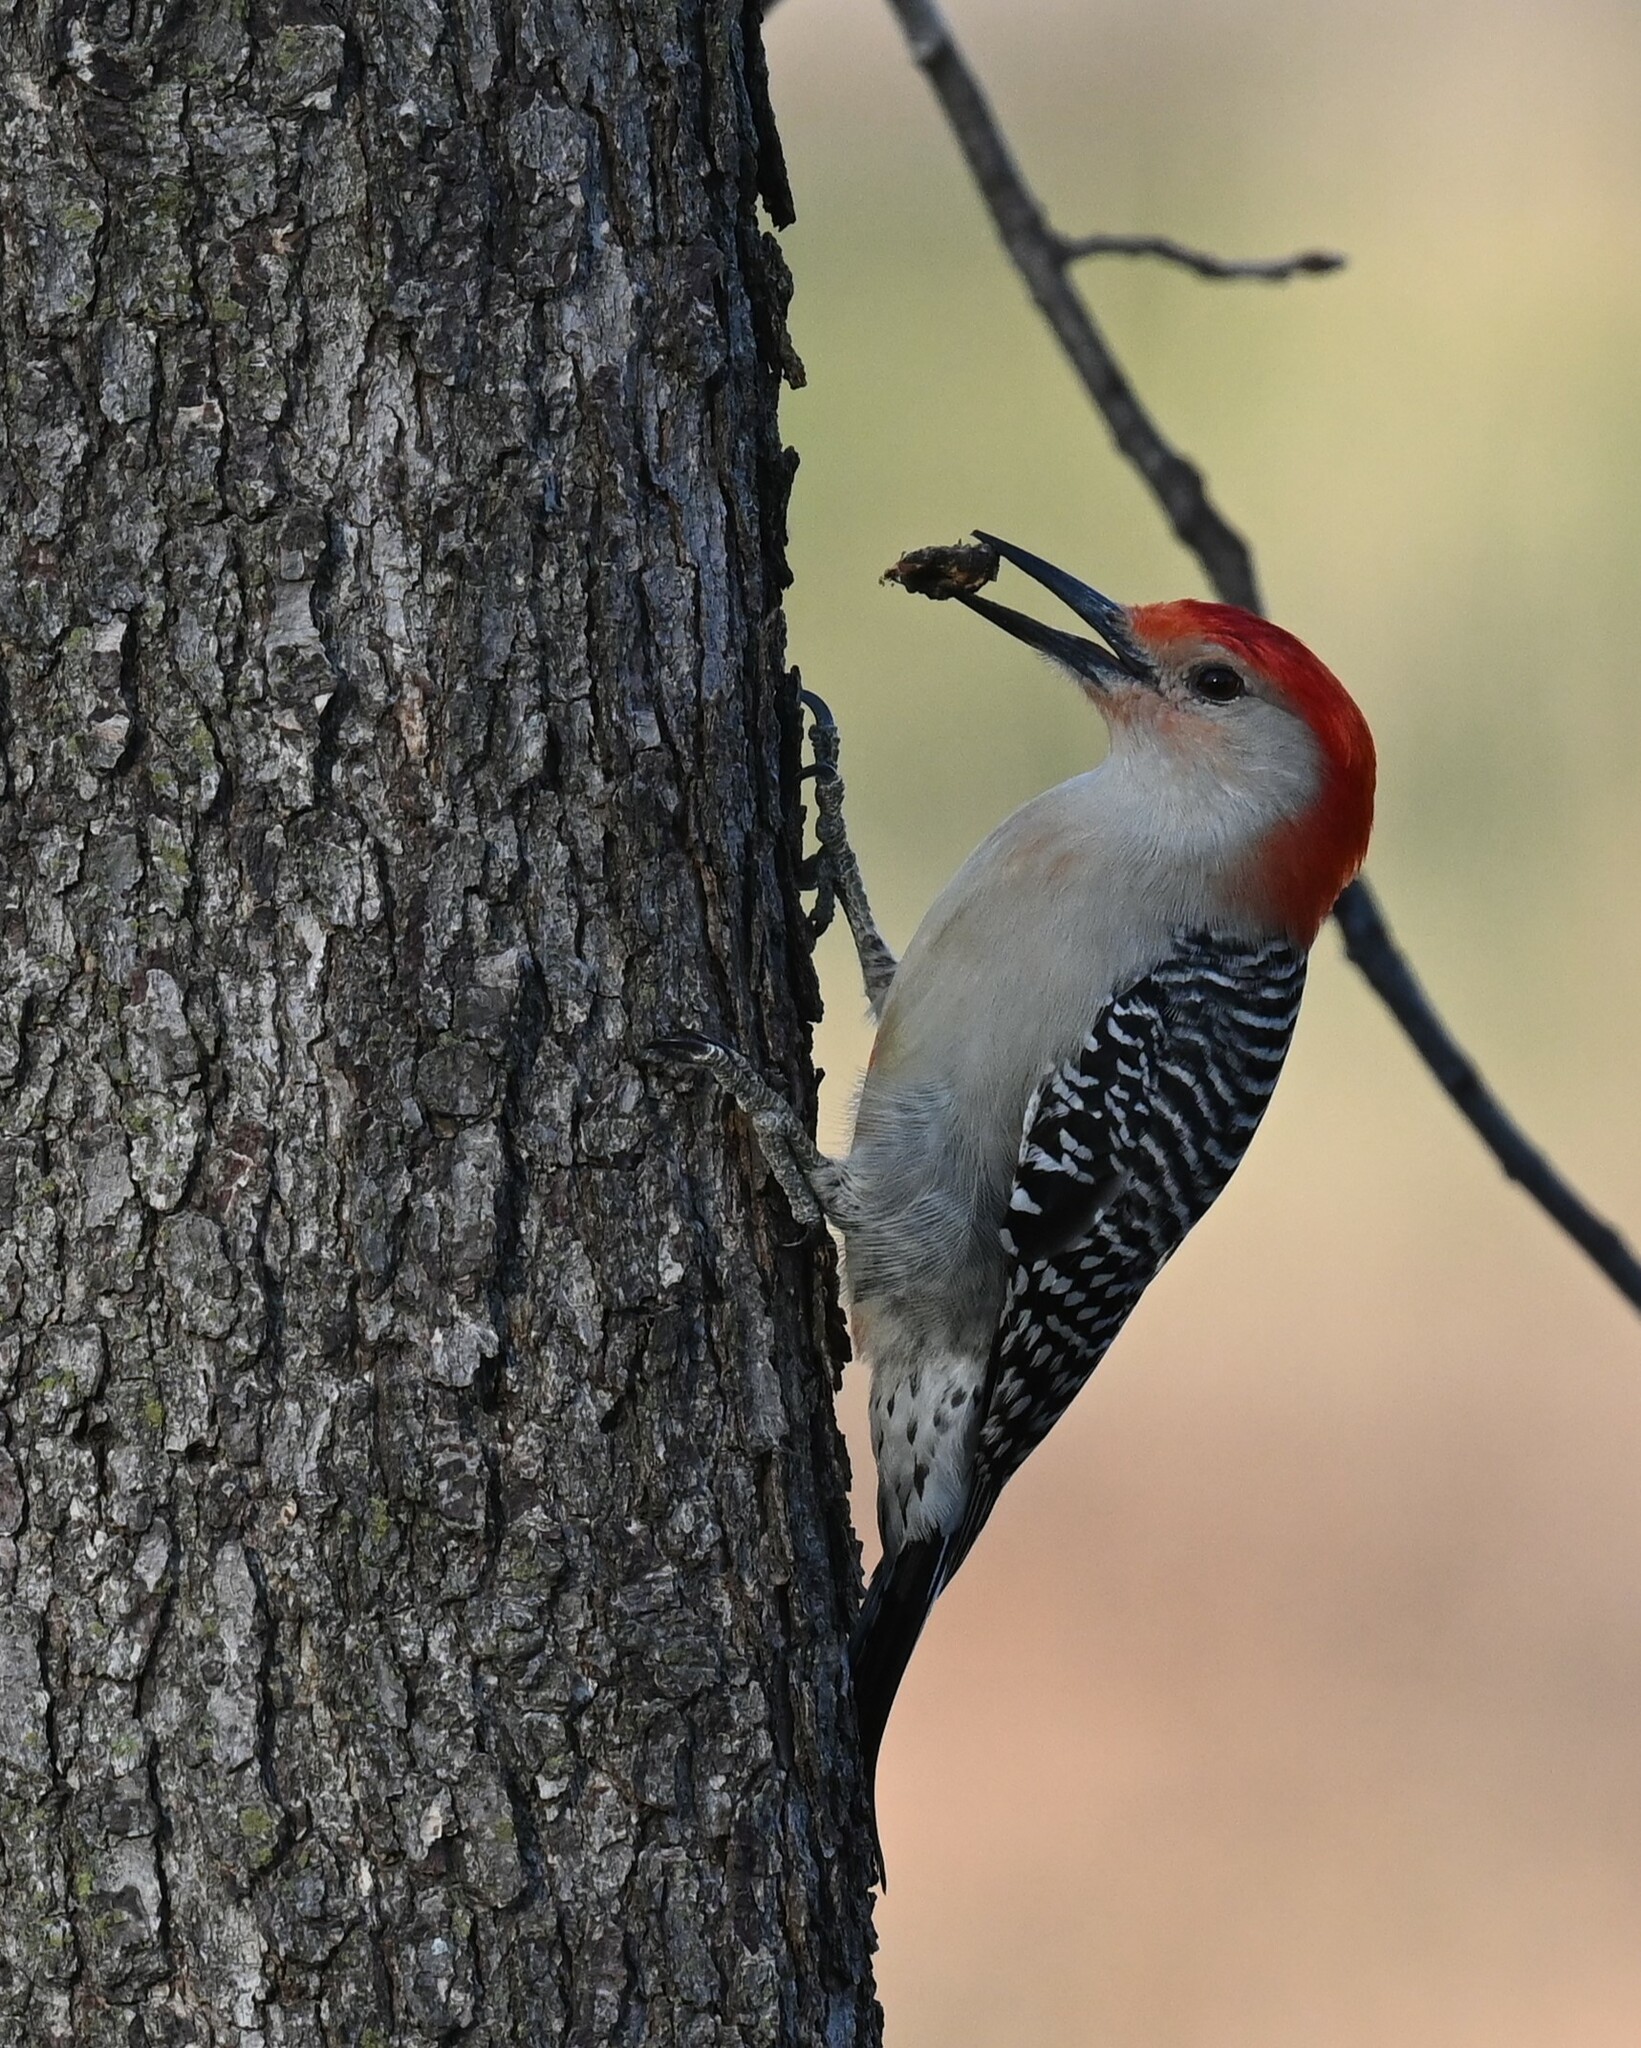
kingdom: Animalia
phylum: Chordata
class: Aves
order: Piciformes
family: Picidae
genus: Melanerpes
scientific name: Melanerpes carolinus
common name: Red-bellied woodpecker
